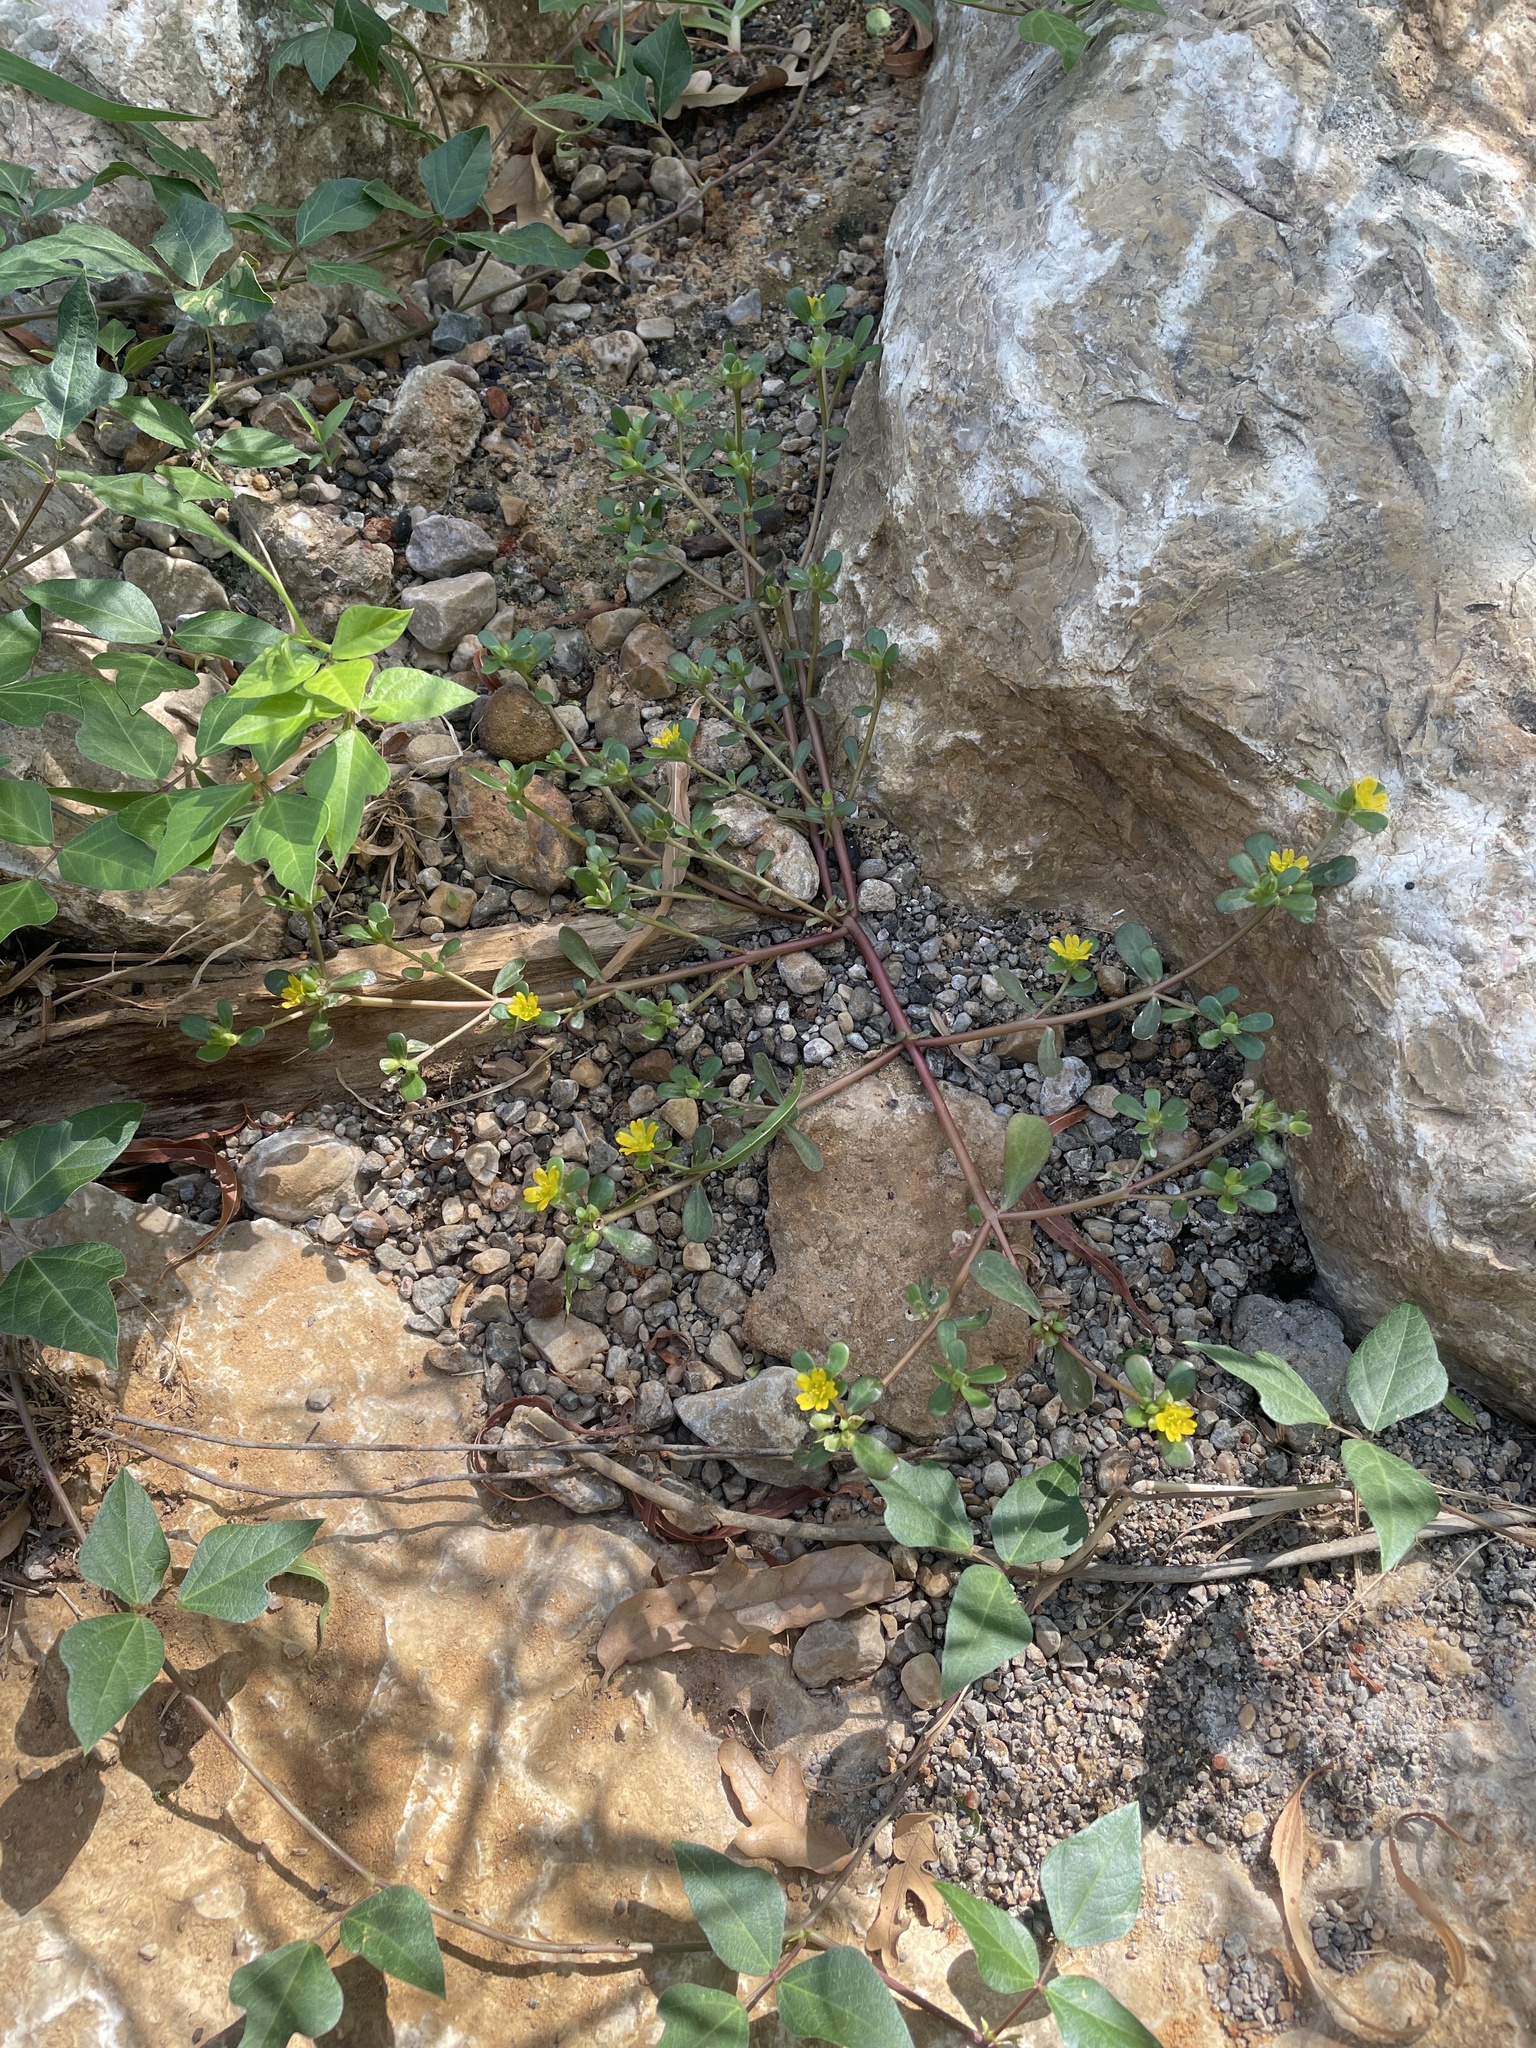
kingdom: Plantae
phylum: Tracheophyta
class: Magnoliopsida
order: Caryophyllales
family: Portulacaceae
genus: Portulaca
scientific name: Portulaca oleracea
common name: Common purslane
